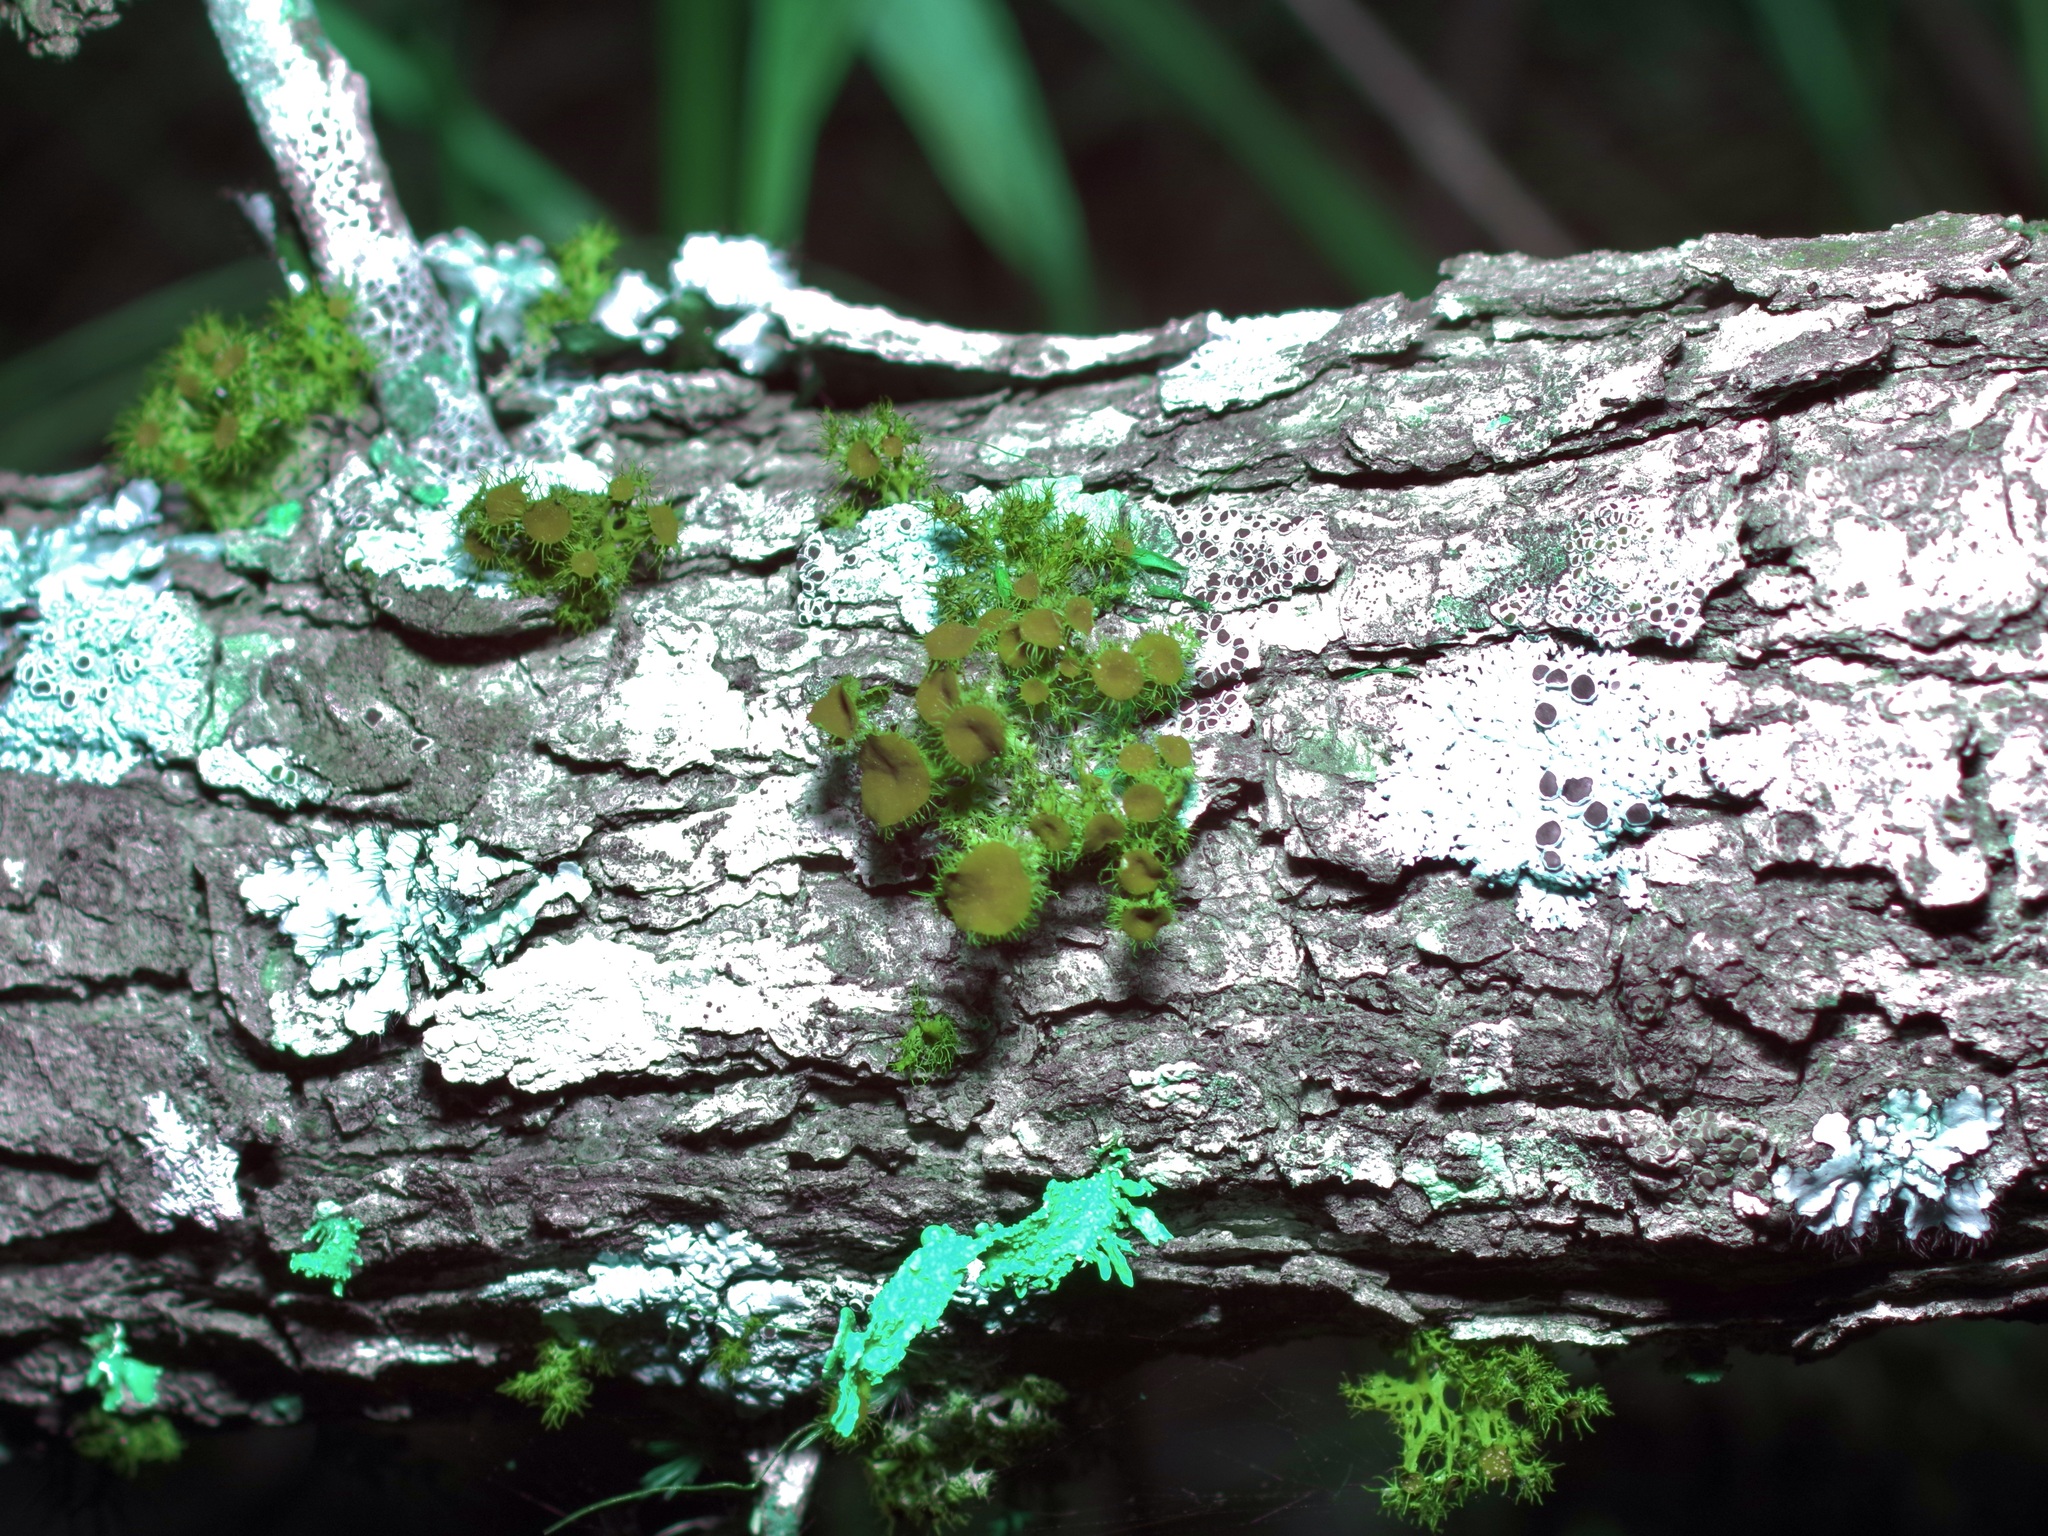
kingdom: Fungi
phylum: Ascomycota
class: Lecanoromycetes
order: Teloschistales
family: Teloschistaceae
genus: Niorma
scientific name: Niorma chrysophthalma
